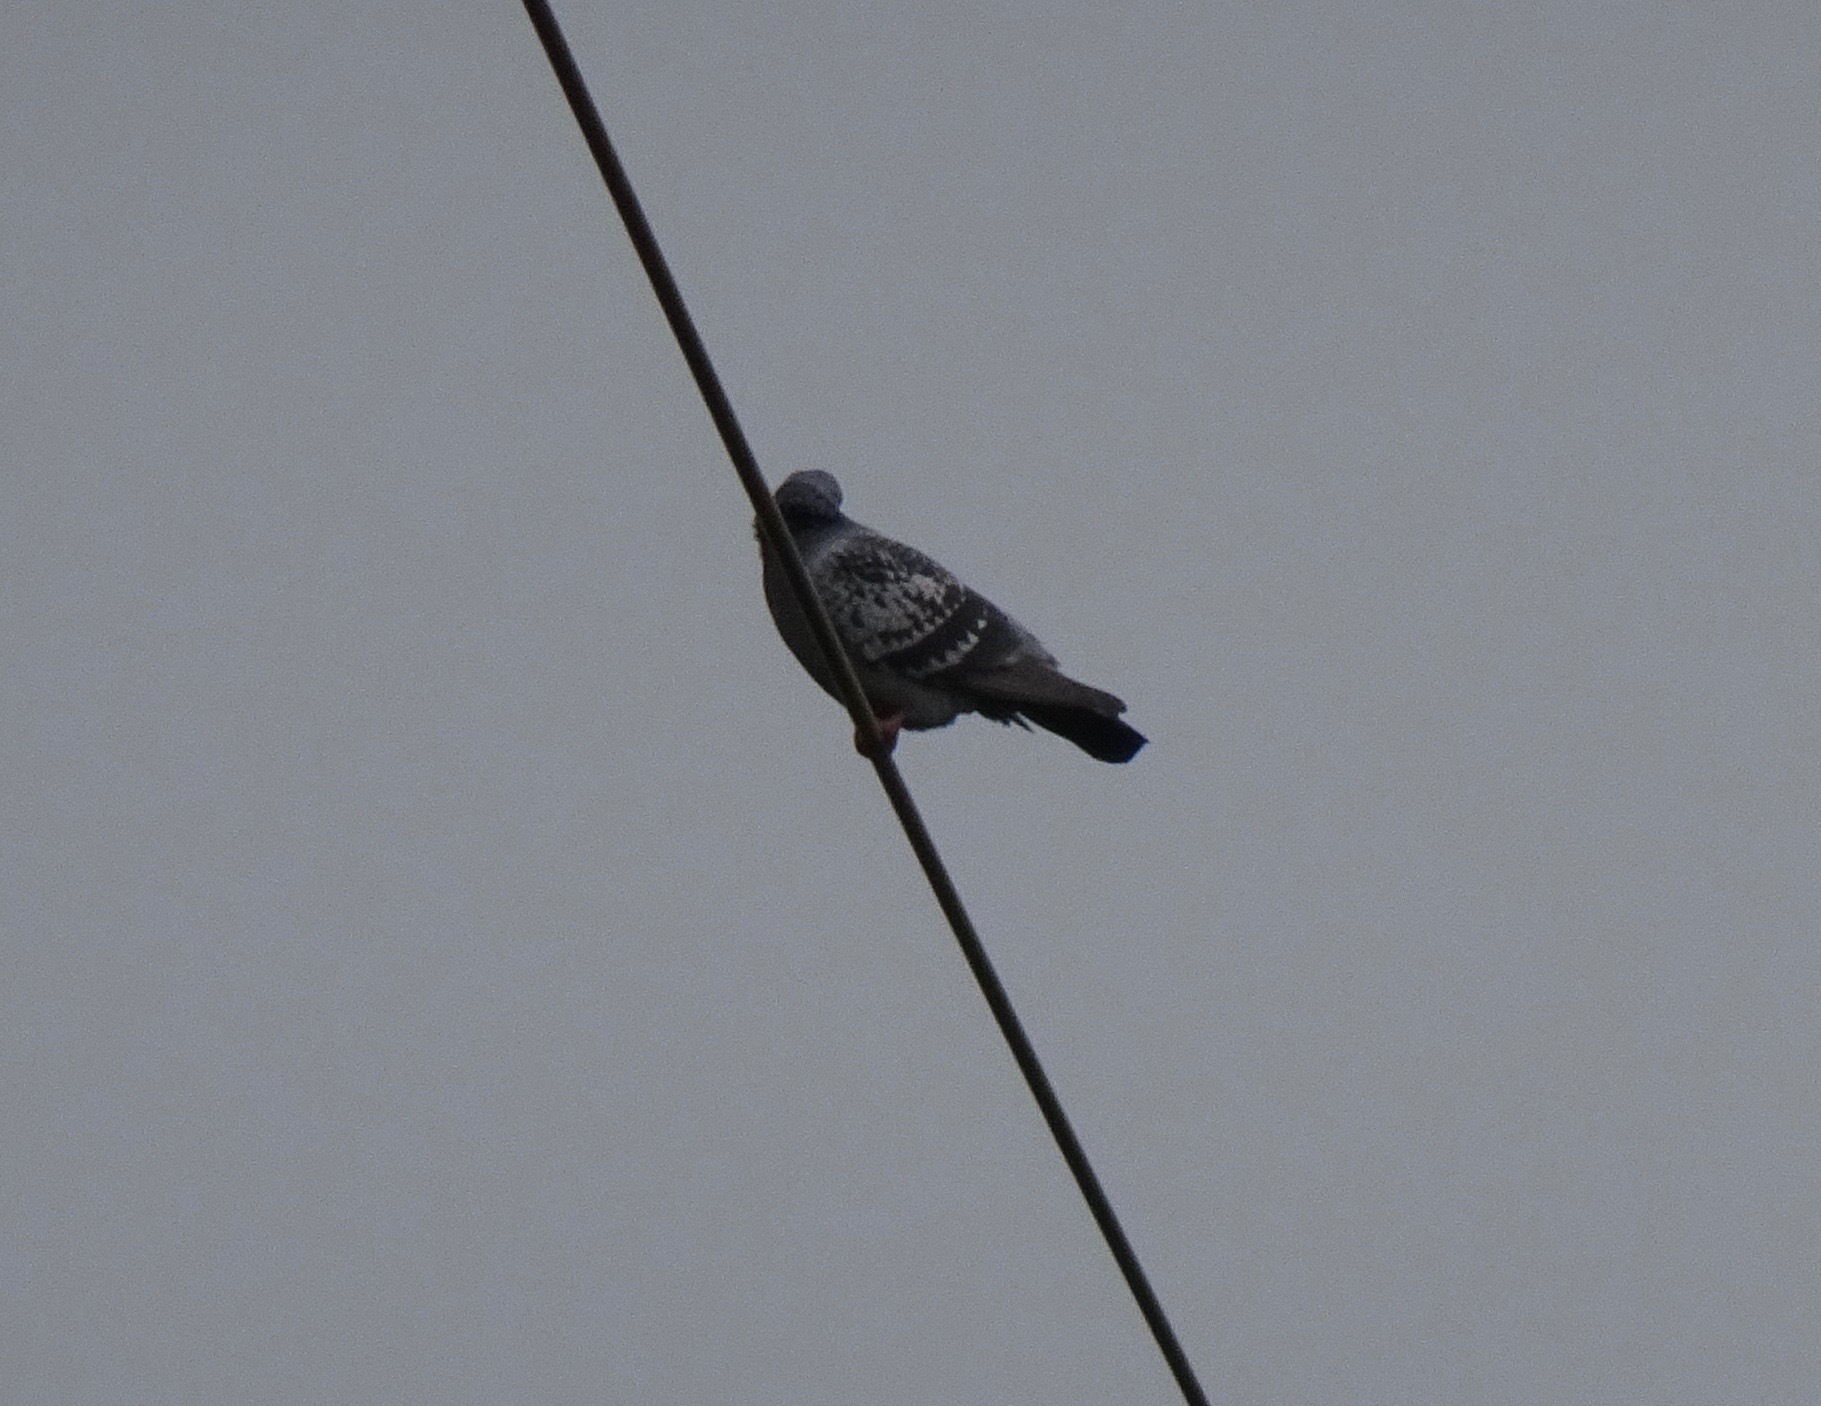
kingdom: Animalia
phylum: Chordata
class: Aves
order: Columbiformes
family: Columbidae
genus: Columba
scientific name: Columba livia
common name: Rock pigeon
